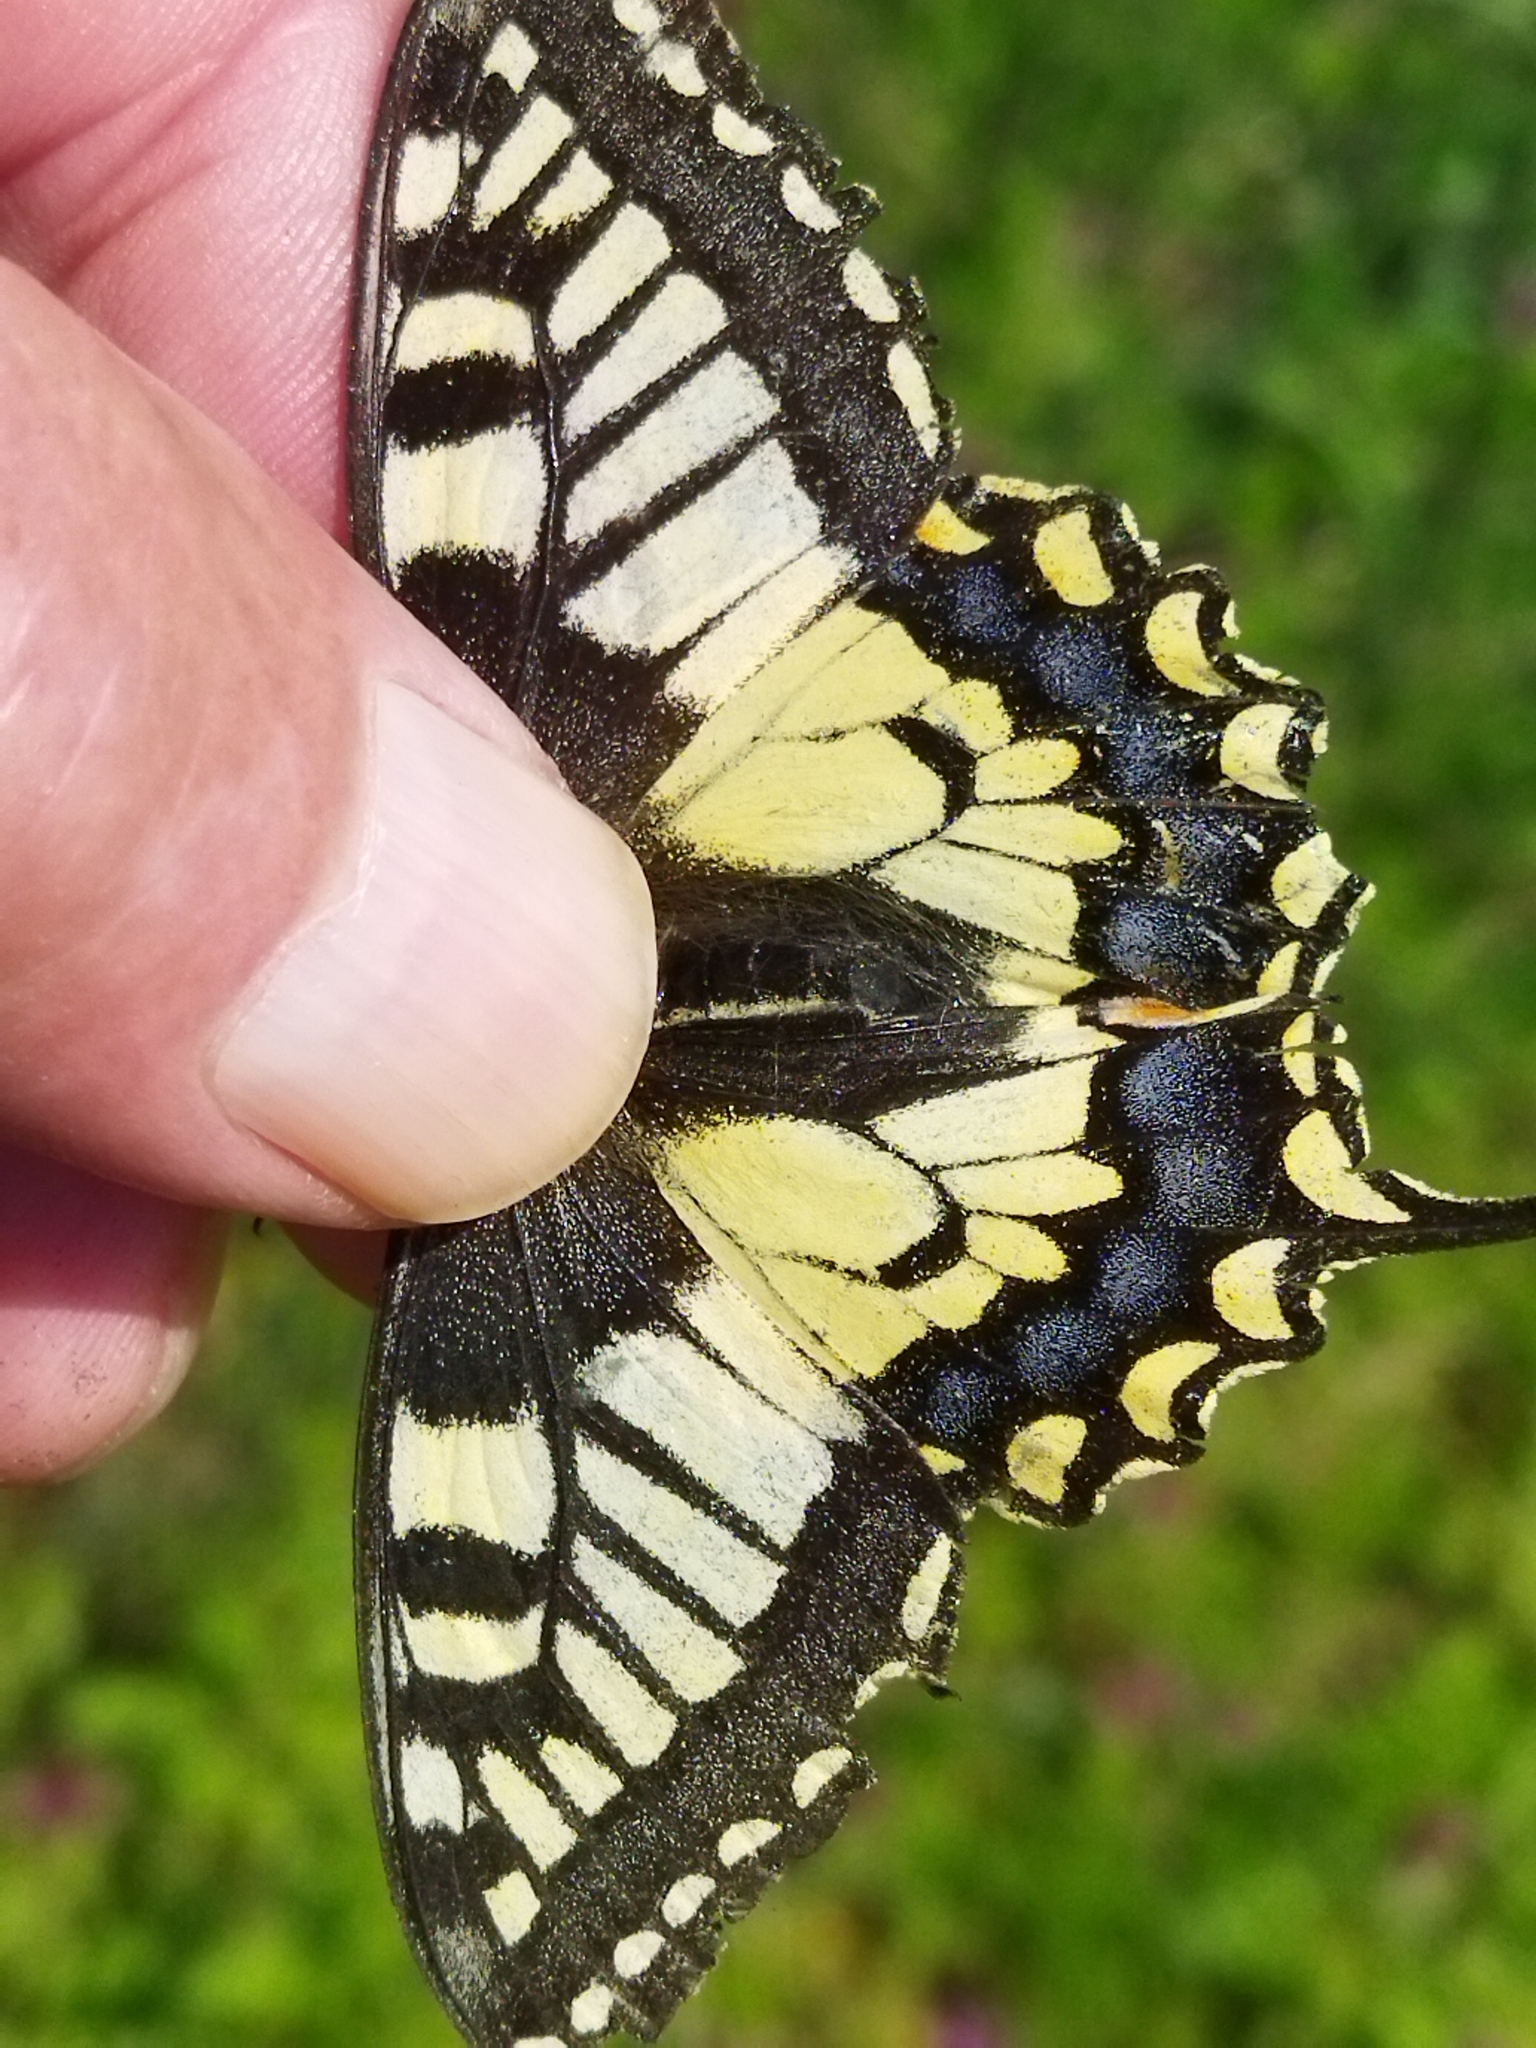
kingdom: Animalia
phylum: Arthropoda
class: Insecta
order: Lepidoptera
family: Papilionidae
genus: Papilio
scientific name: Papilio machaon
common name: Swallowtail
